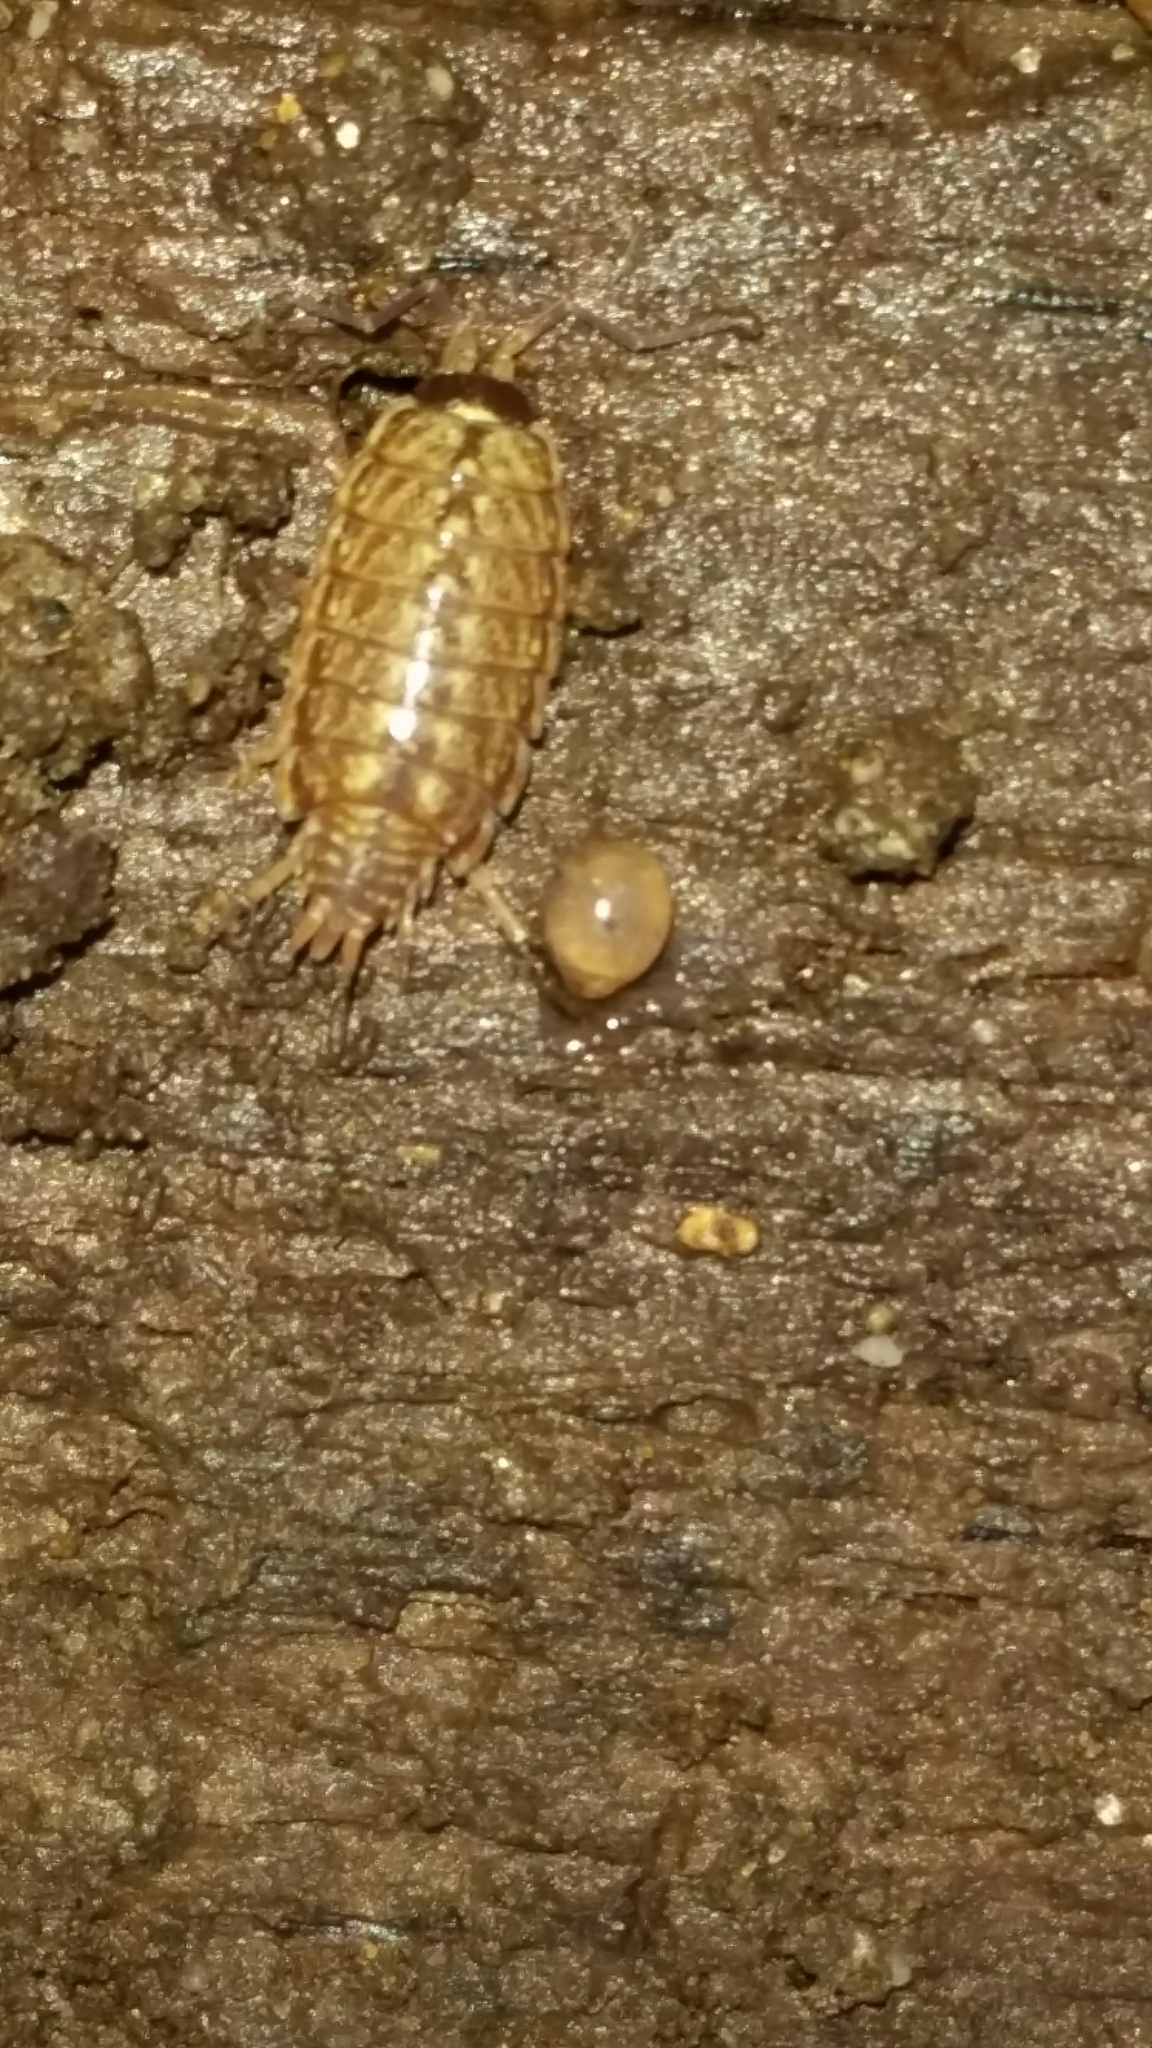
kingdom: Animalia
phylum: Arthropoda
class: Malacostraca
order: Isopoda
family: Philosciidae
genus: Philoscia
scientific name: Philoscia muscorum
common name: Common striped woodlouse
